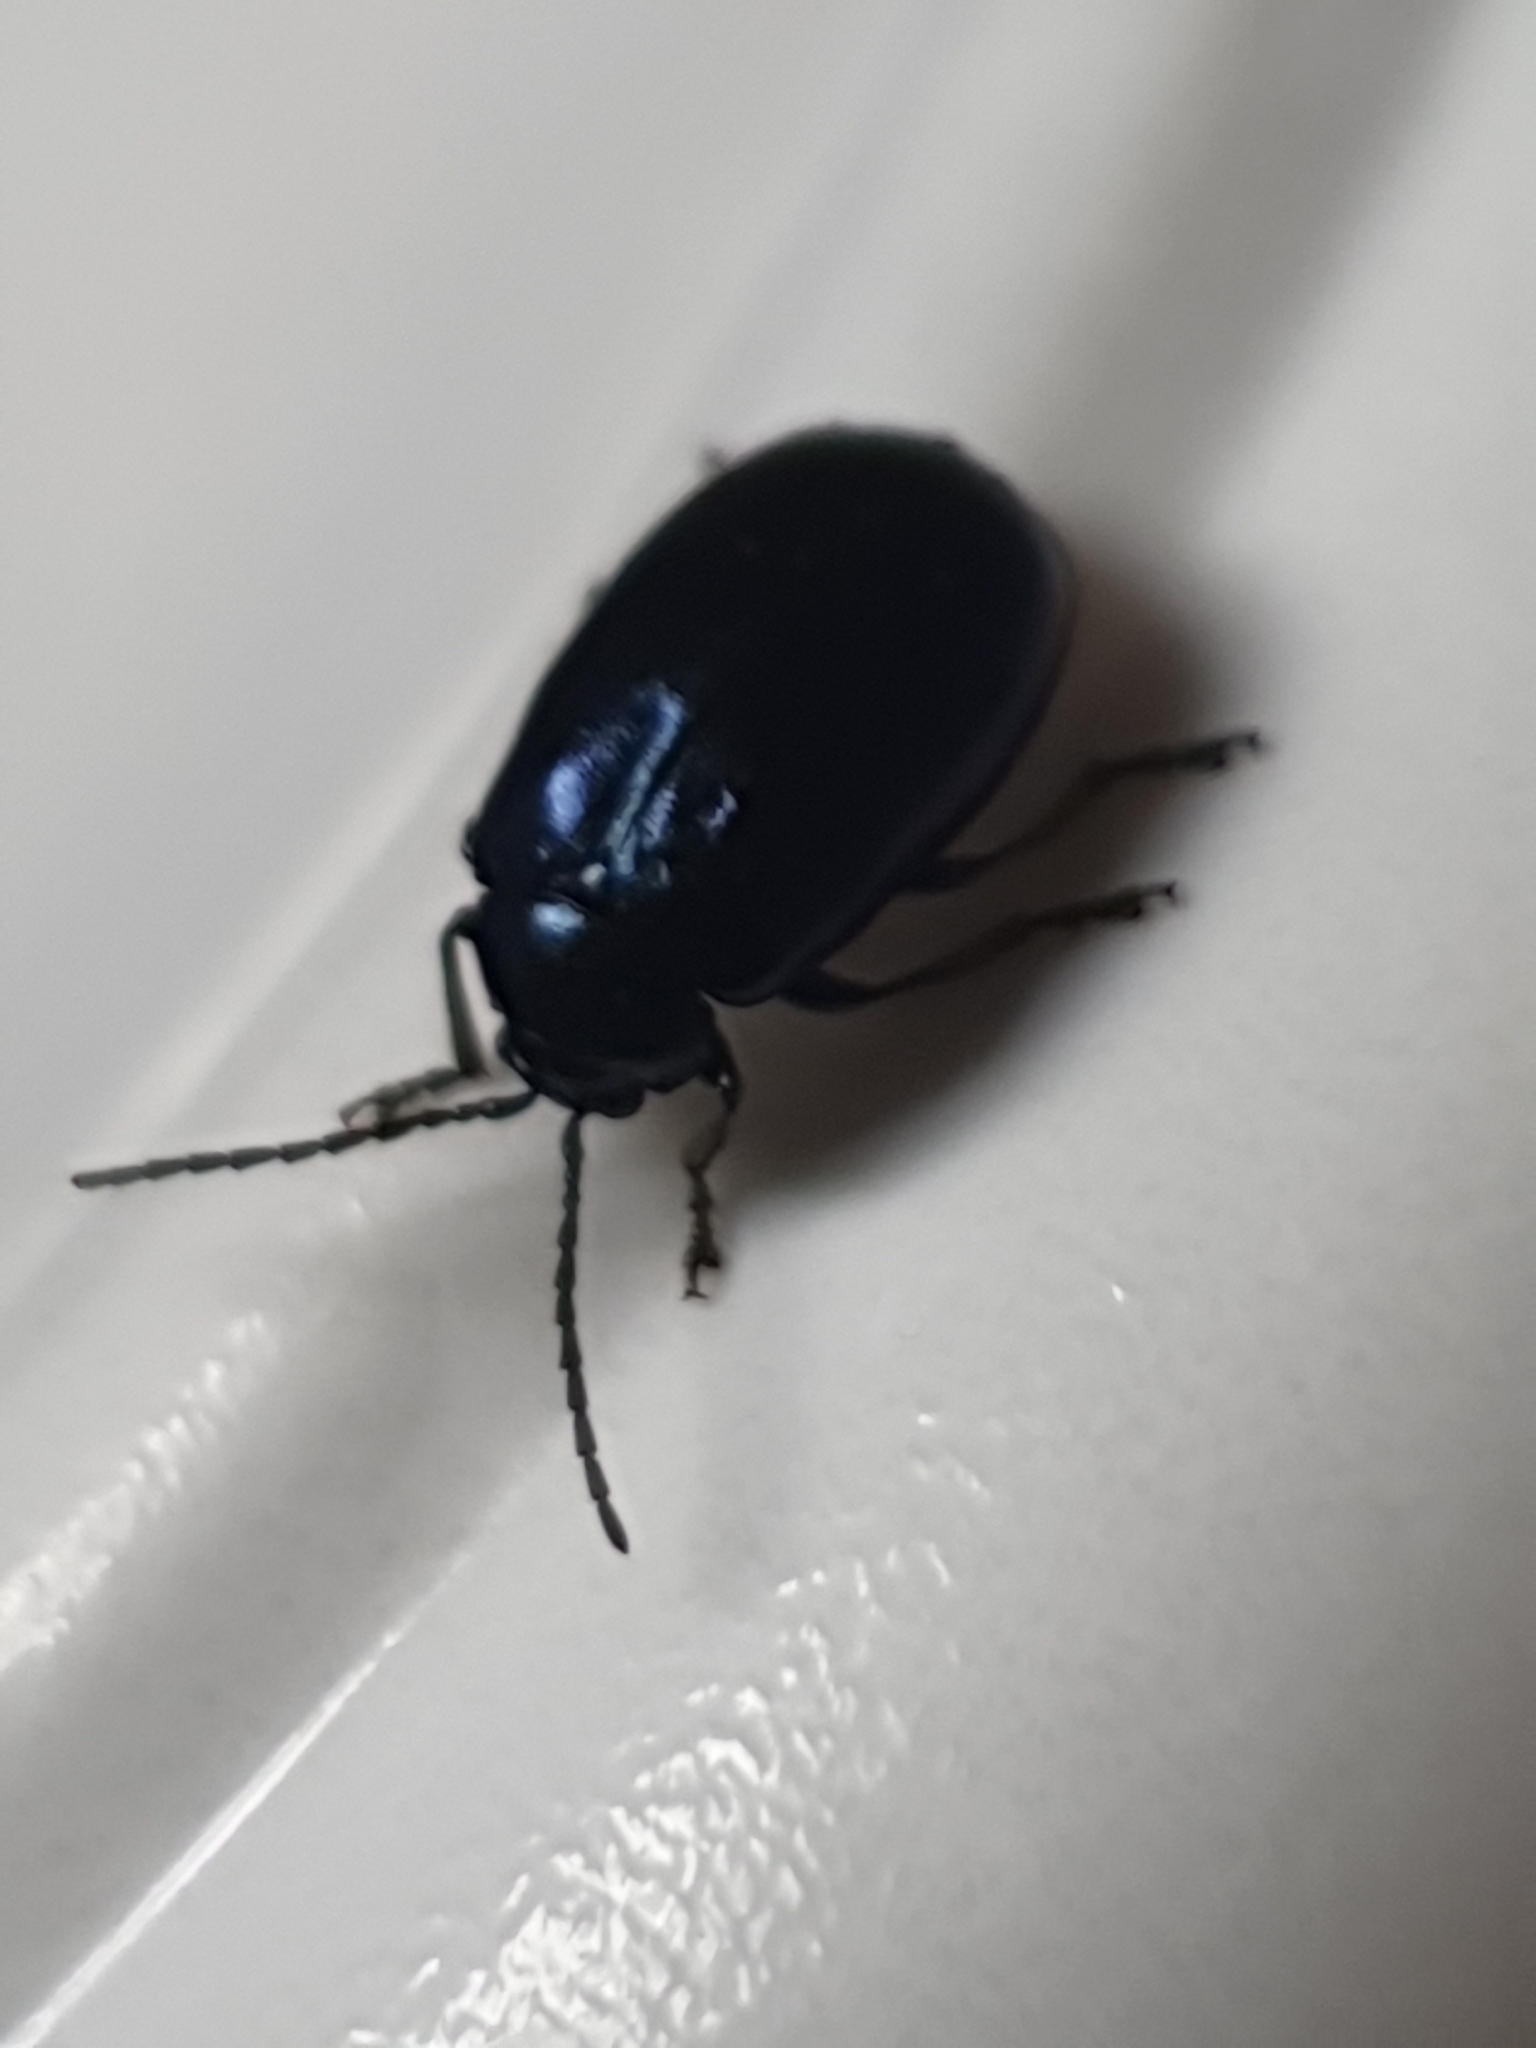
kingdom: Animalia
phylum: Arthropoda
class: Insecta
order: Coleoptera
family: Chrysomelidae
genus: Agelastica
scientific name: Agelastica alni
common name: Alder leaf beetle
